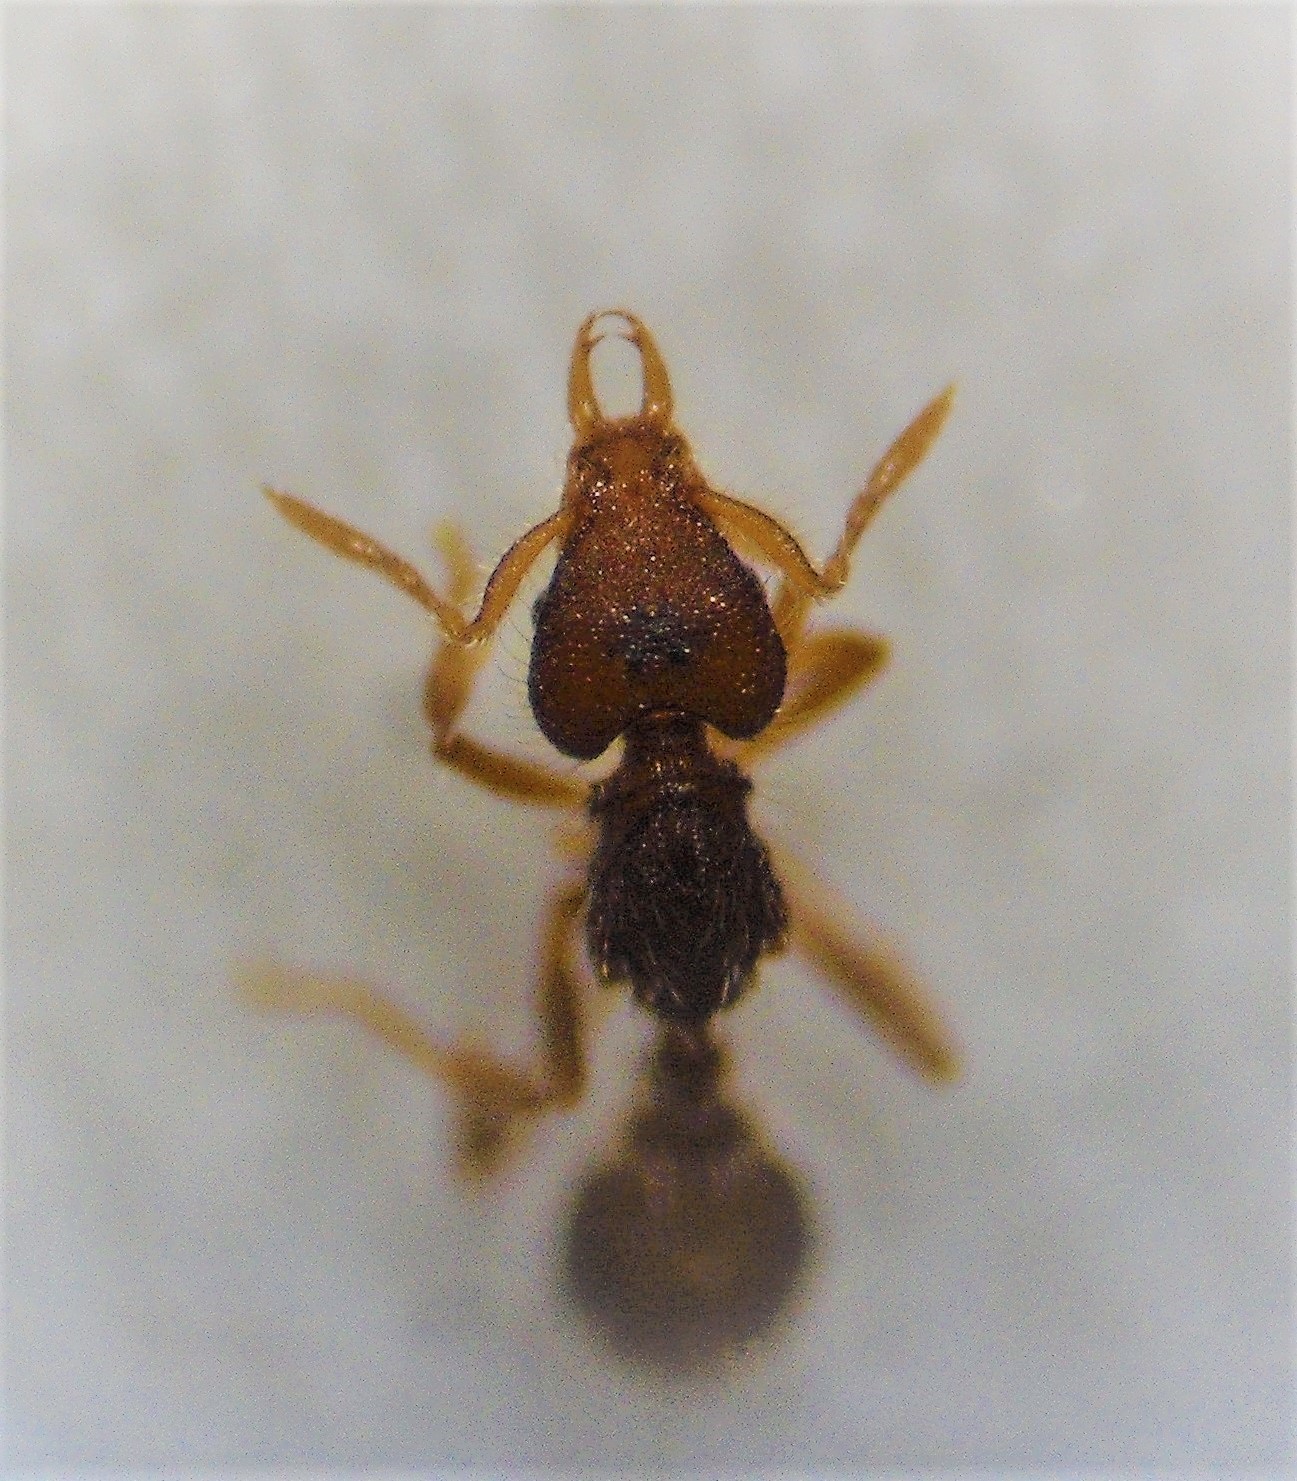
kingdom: Animalia
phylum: Arthropoda
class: Insecta
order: Hymenoptera
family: Formicidae
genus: Strumigenys
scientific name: Strumigenys xenos
